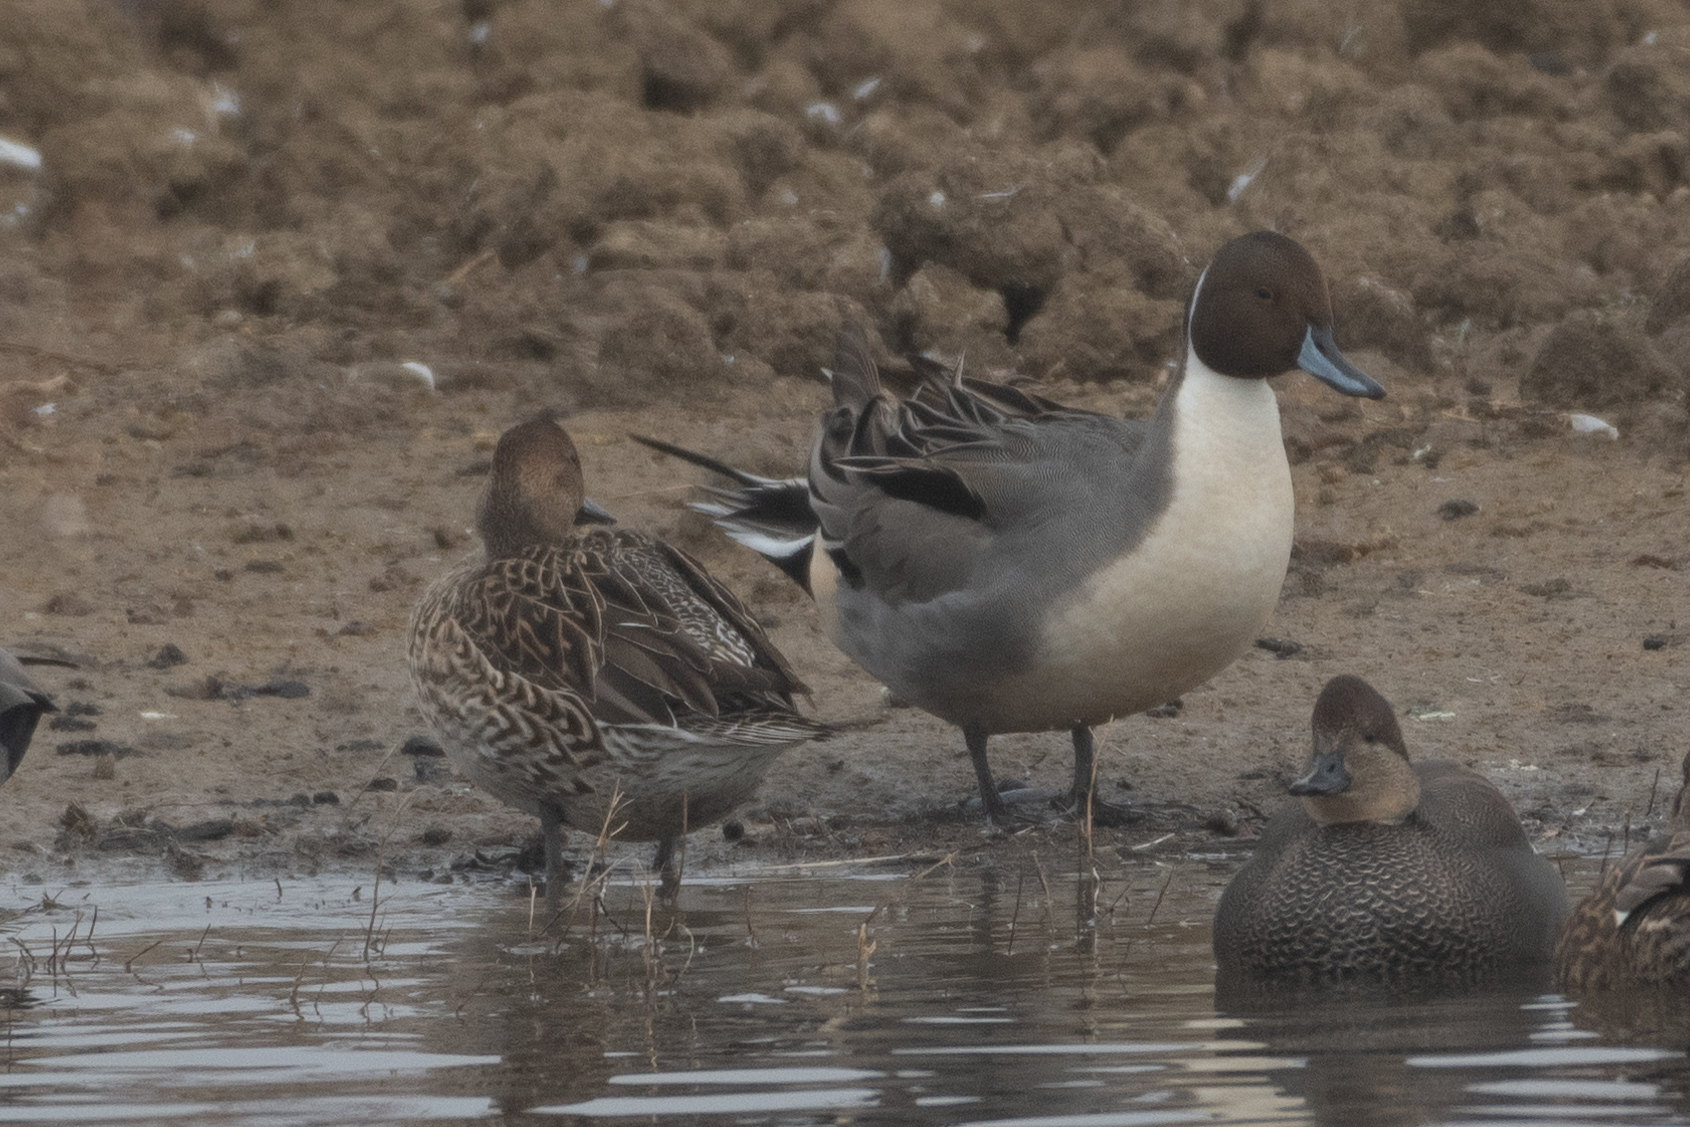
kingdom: Animalia
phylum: Chordata
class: Aves
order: Anseriformes
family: Anatidae
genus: Anas
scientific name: Anas acuta
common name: Northern pintail
